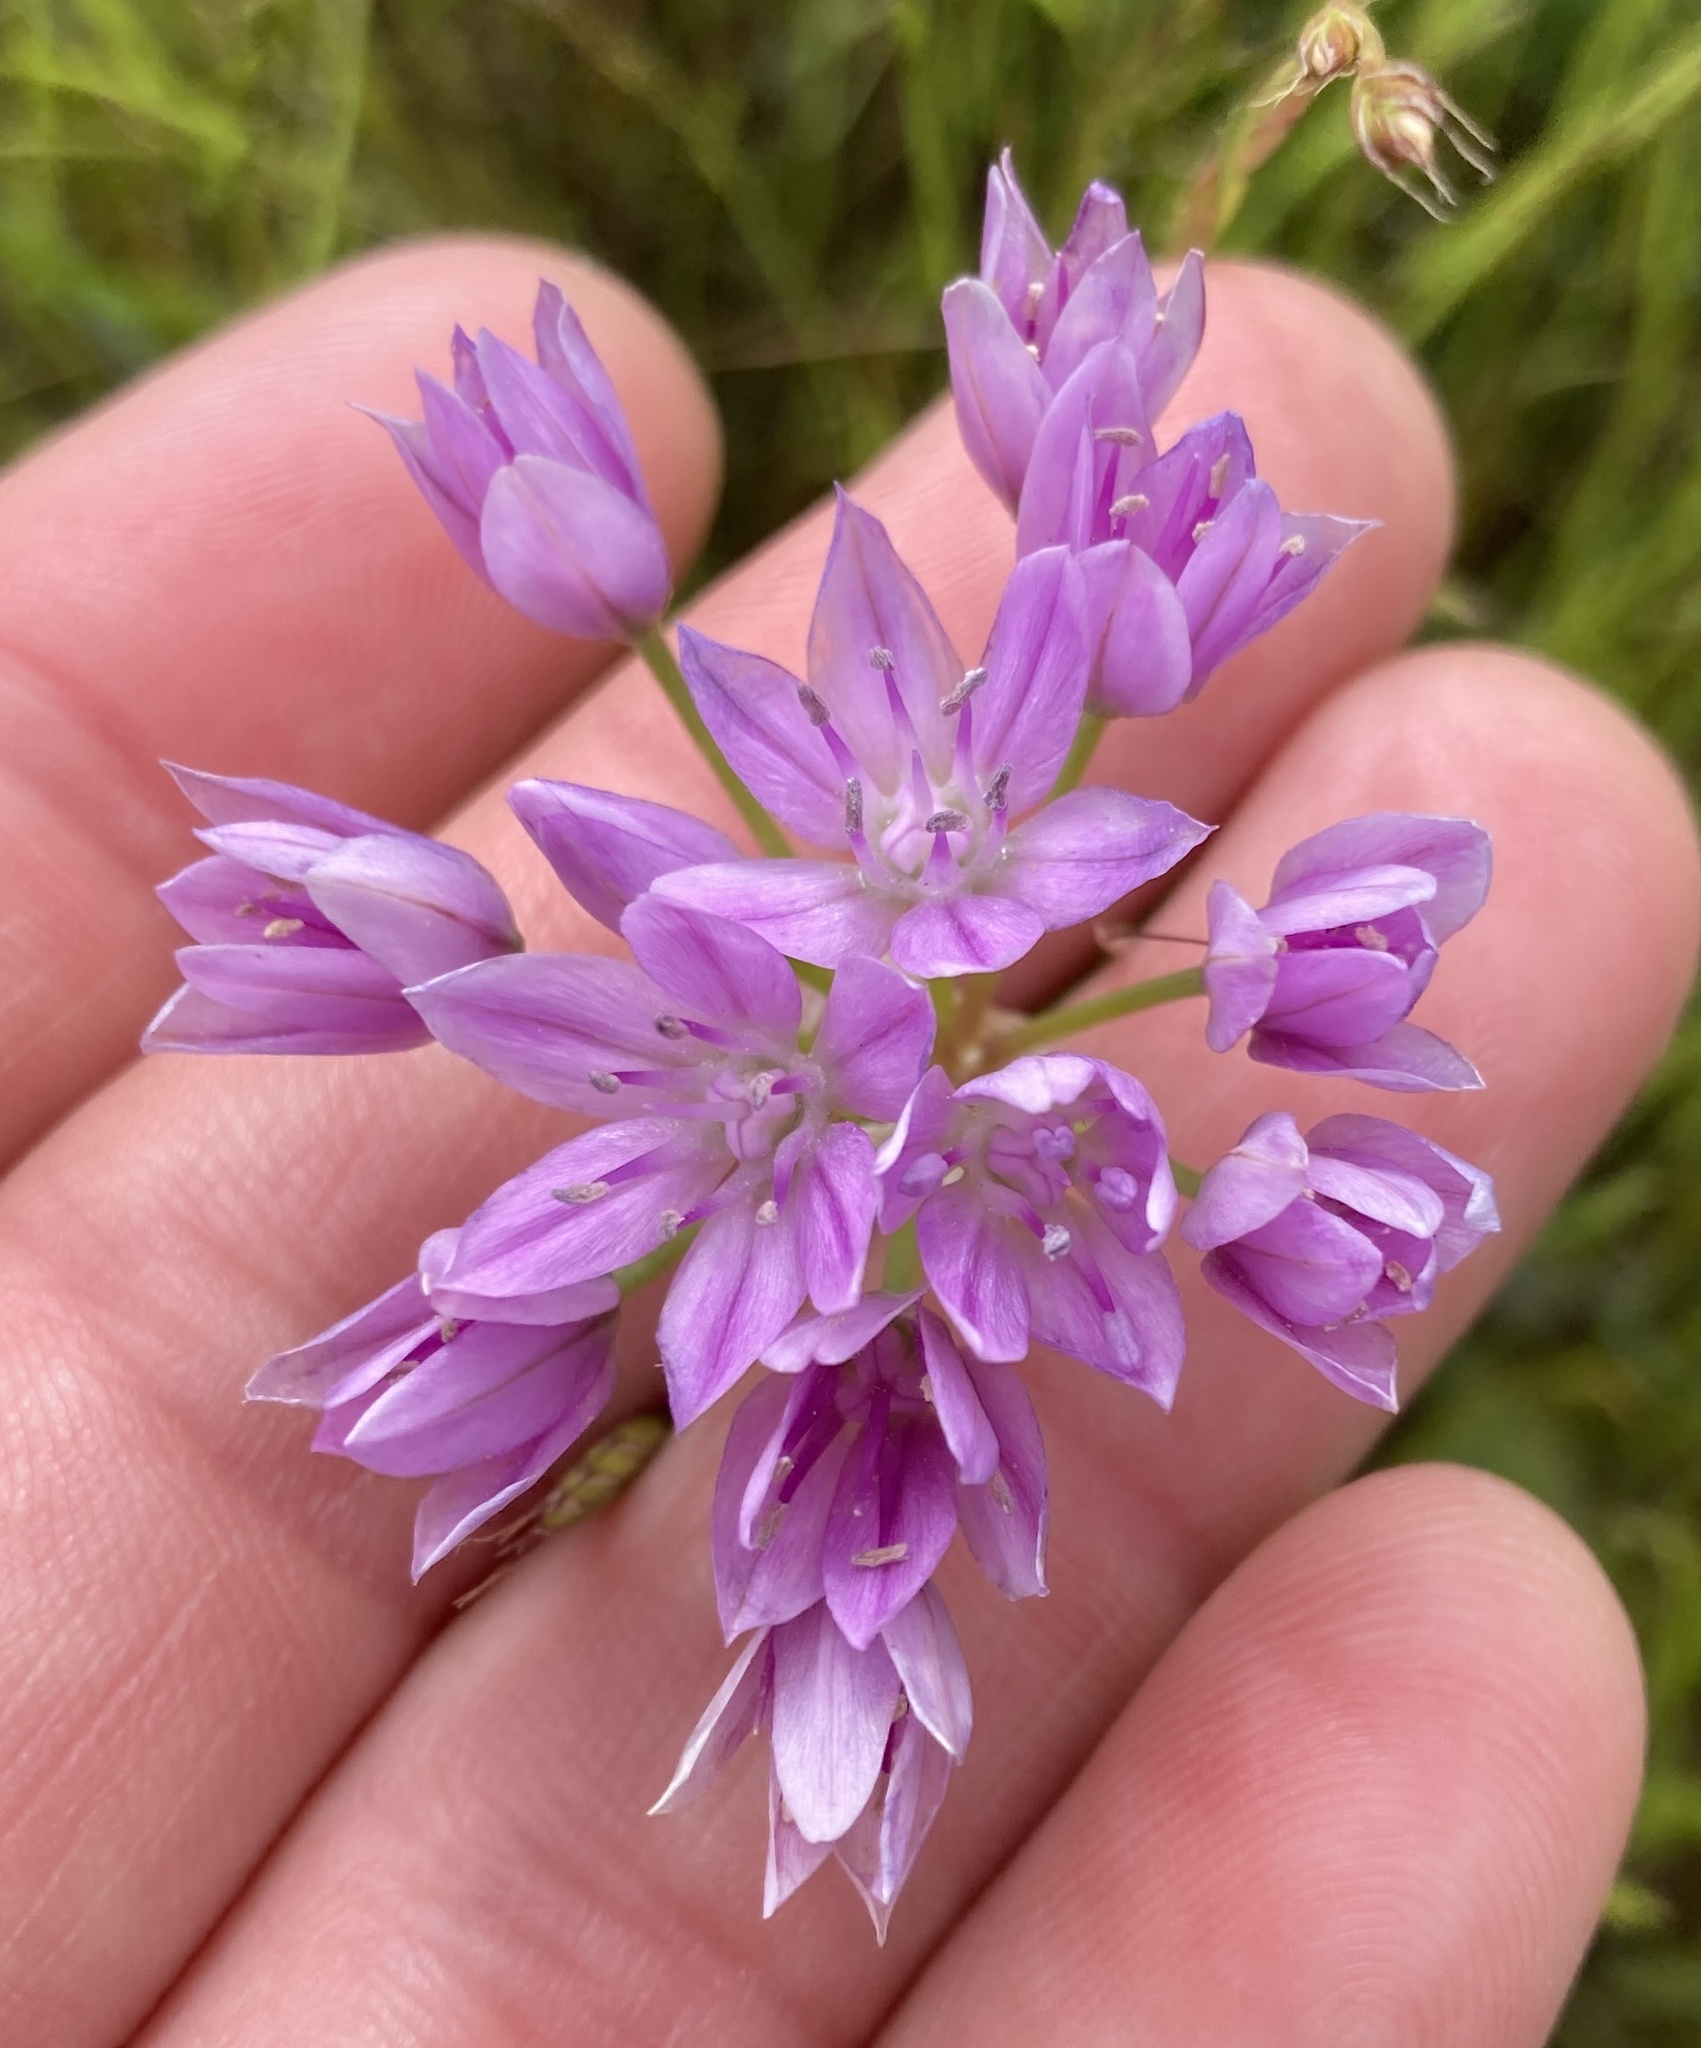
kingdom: Plantae
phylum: Tracheophyta
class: Liliopsida
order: Asparagales
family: Amaryllidaceae
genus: Allium
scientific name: Allium unifolium
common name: American garlic
